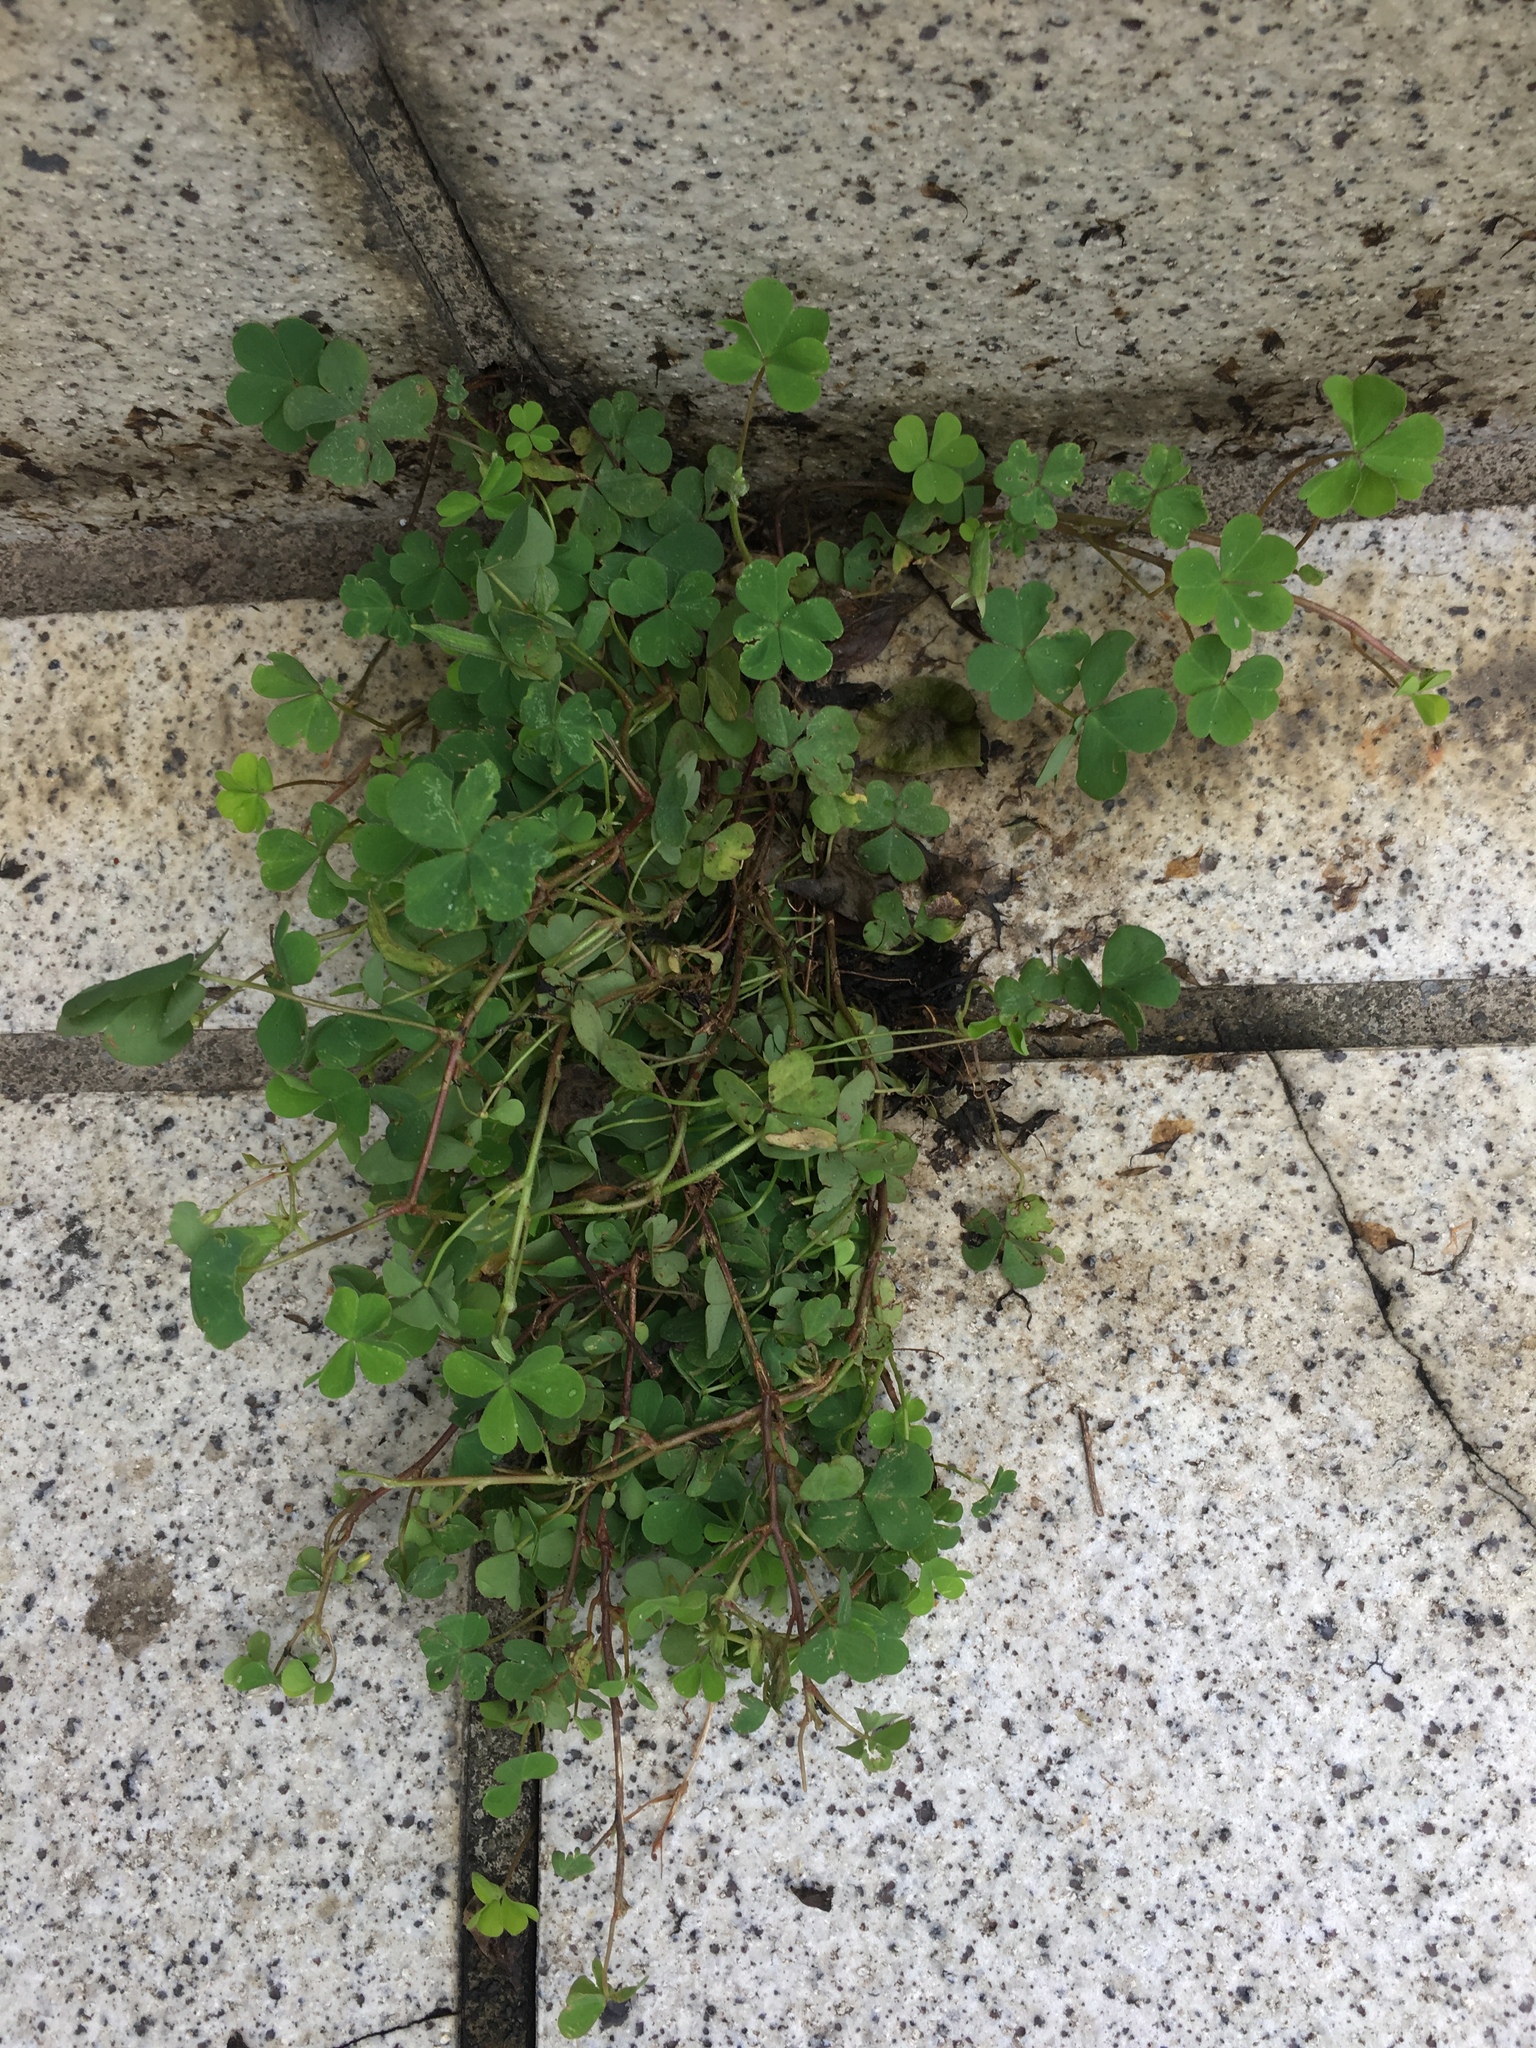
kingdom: Plantae
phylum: Tracheophyta
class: Magnoliopsida
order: Oxalidales
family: Oxalidaceae
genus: Oxalis
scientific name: Oxalis corniculata
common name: Procumbent yellow-sorrel
